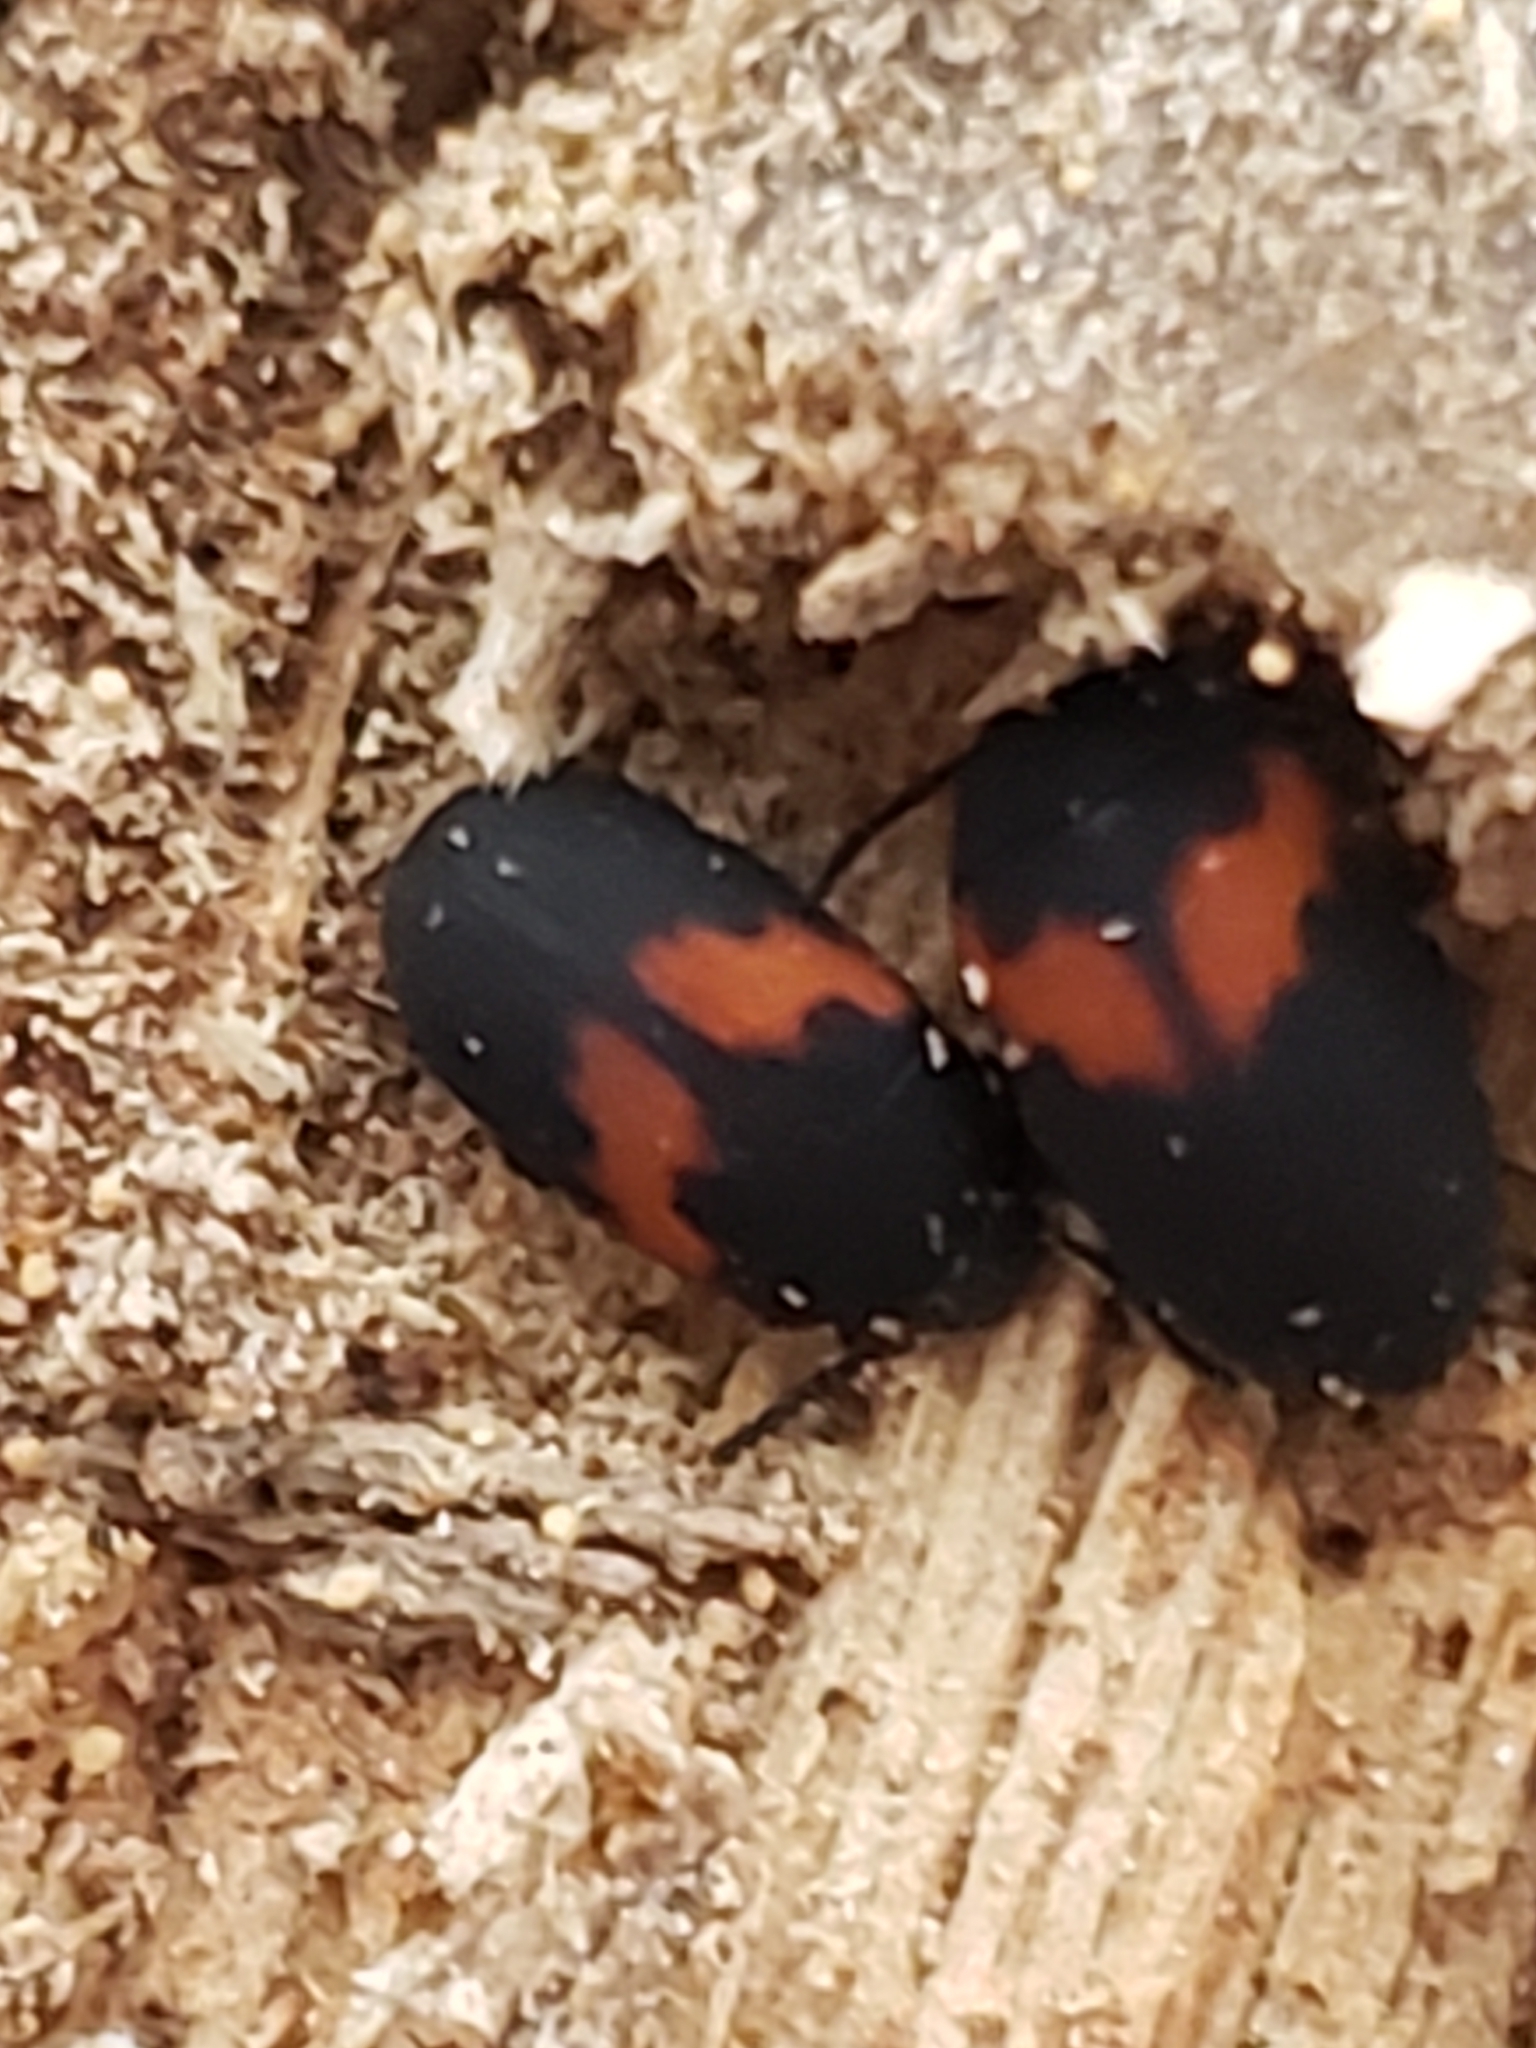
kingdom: Animalia
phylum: Arthropoda
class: Insecta
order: Coleoptera
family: Tenebrionidae
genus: Platydema
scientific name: Platydema elliptica
